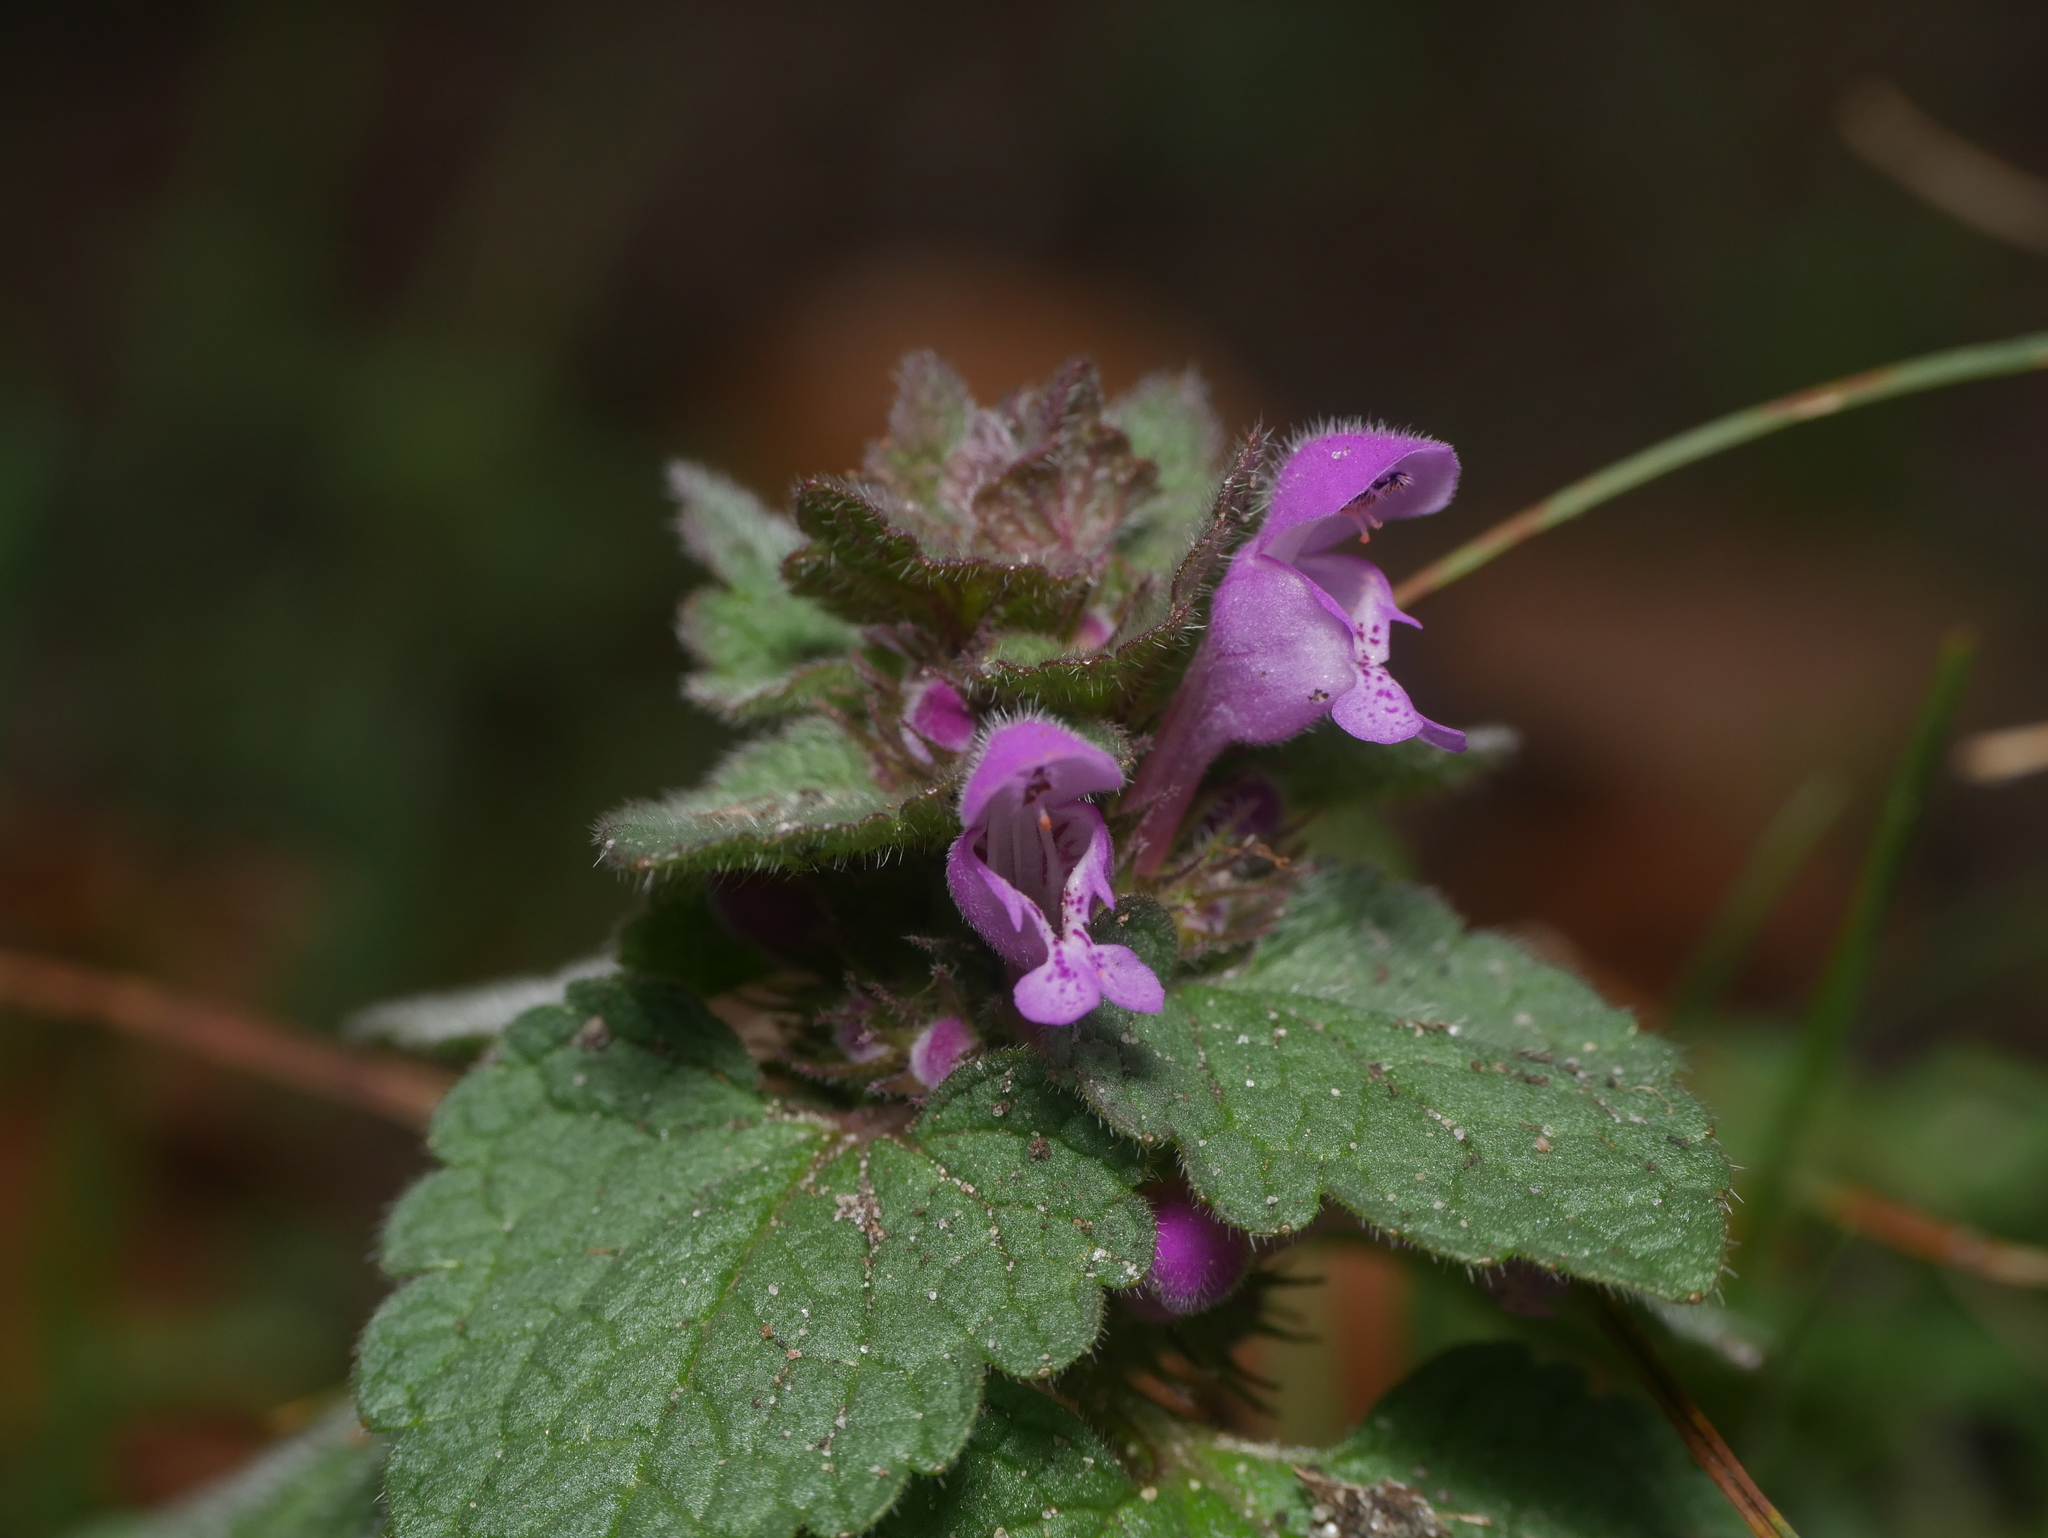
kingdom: Plantae
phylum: Tracheophyta
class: Magnoliopsida
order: Lamiales
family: Lamiaceae
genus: Lamium
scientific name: Lamium purpureum
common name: Red dead-nettle
